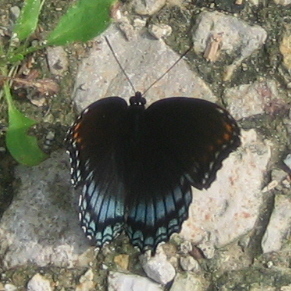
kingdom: Animalia
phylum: Arthropoda
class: Insecta
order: Lepidoptera
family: Nymphalidae
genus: Limenitis
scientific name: Limenitis astyanax
